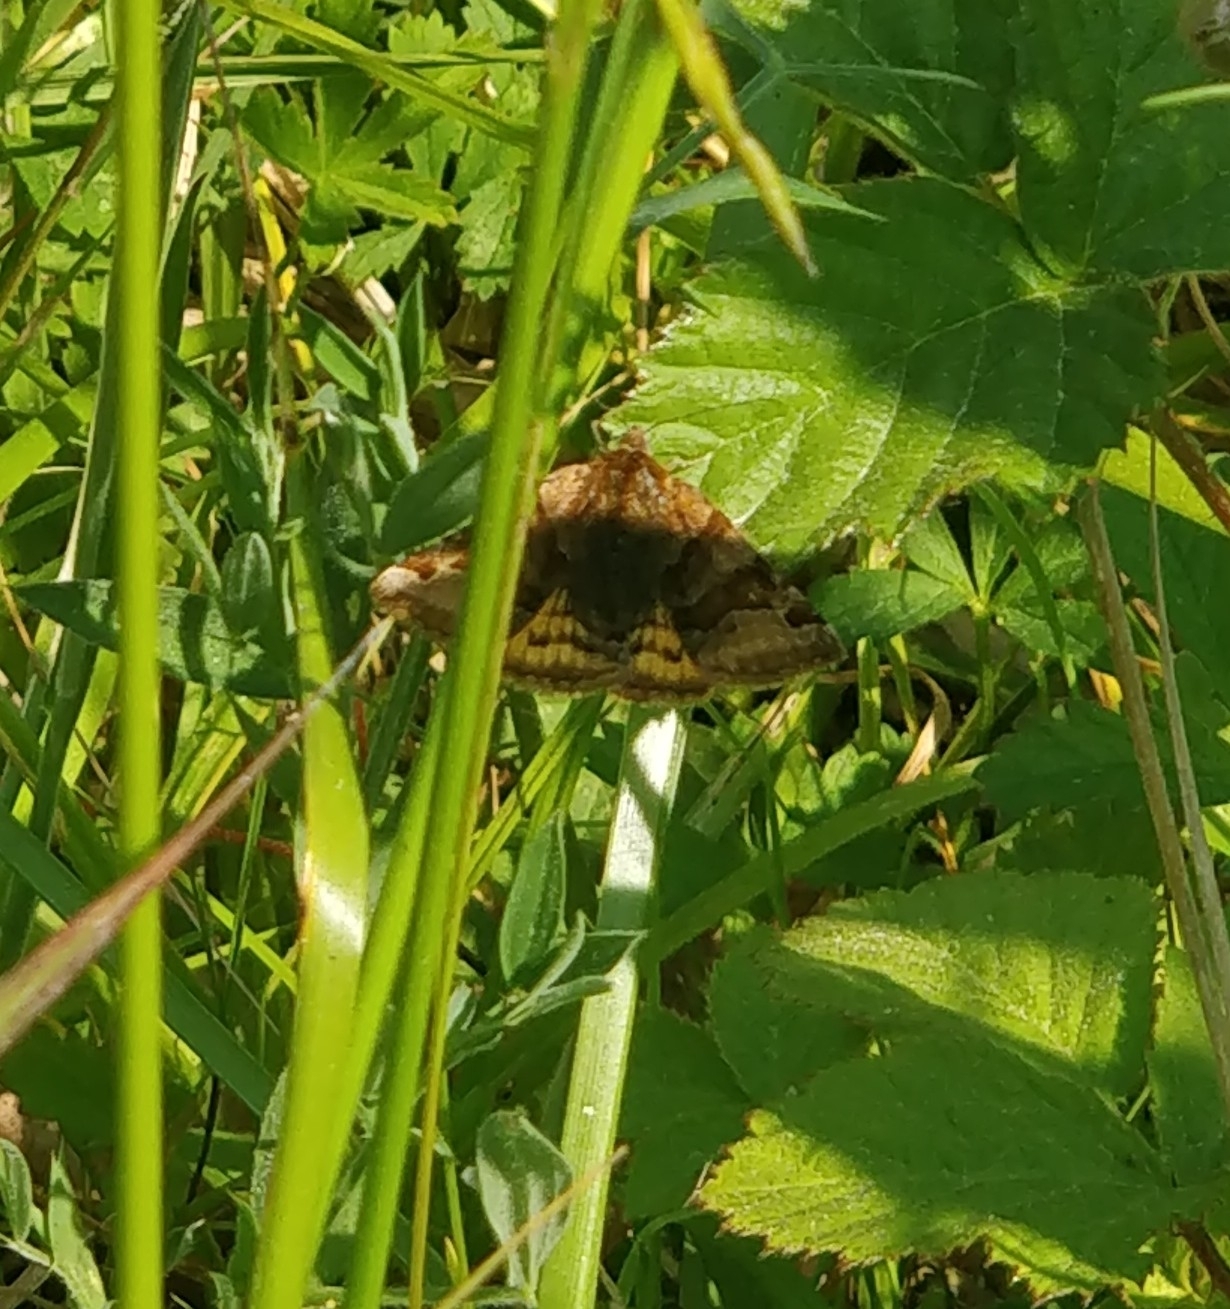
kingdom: Animalia
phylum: Arthropoda
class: Insecta
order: Lepidoptera
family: Erebidae
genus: Euclidia
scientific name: Euclidia glyphica
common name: Burnet companion
